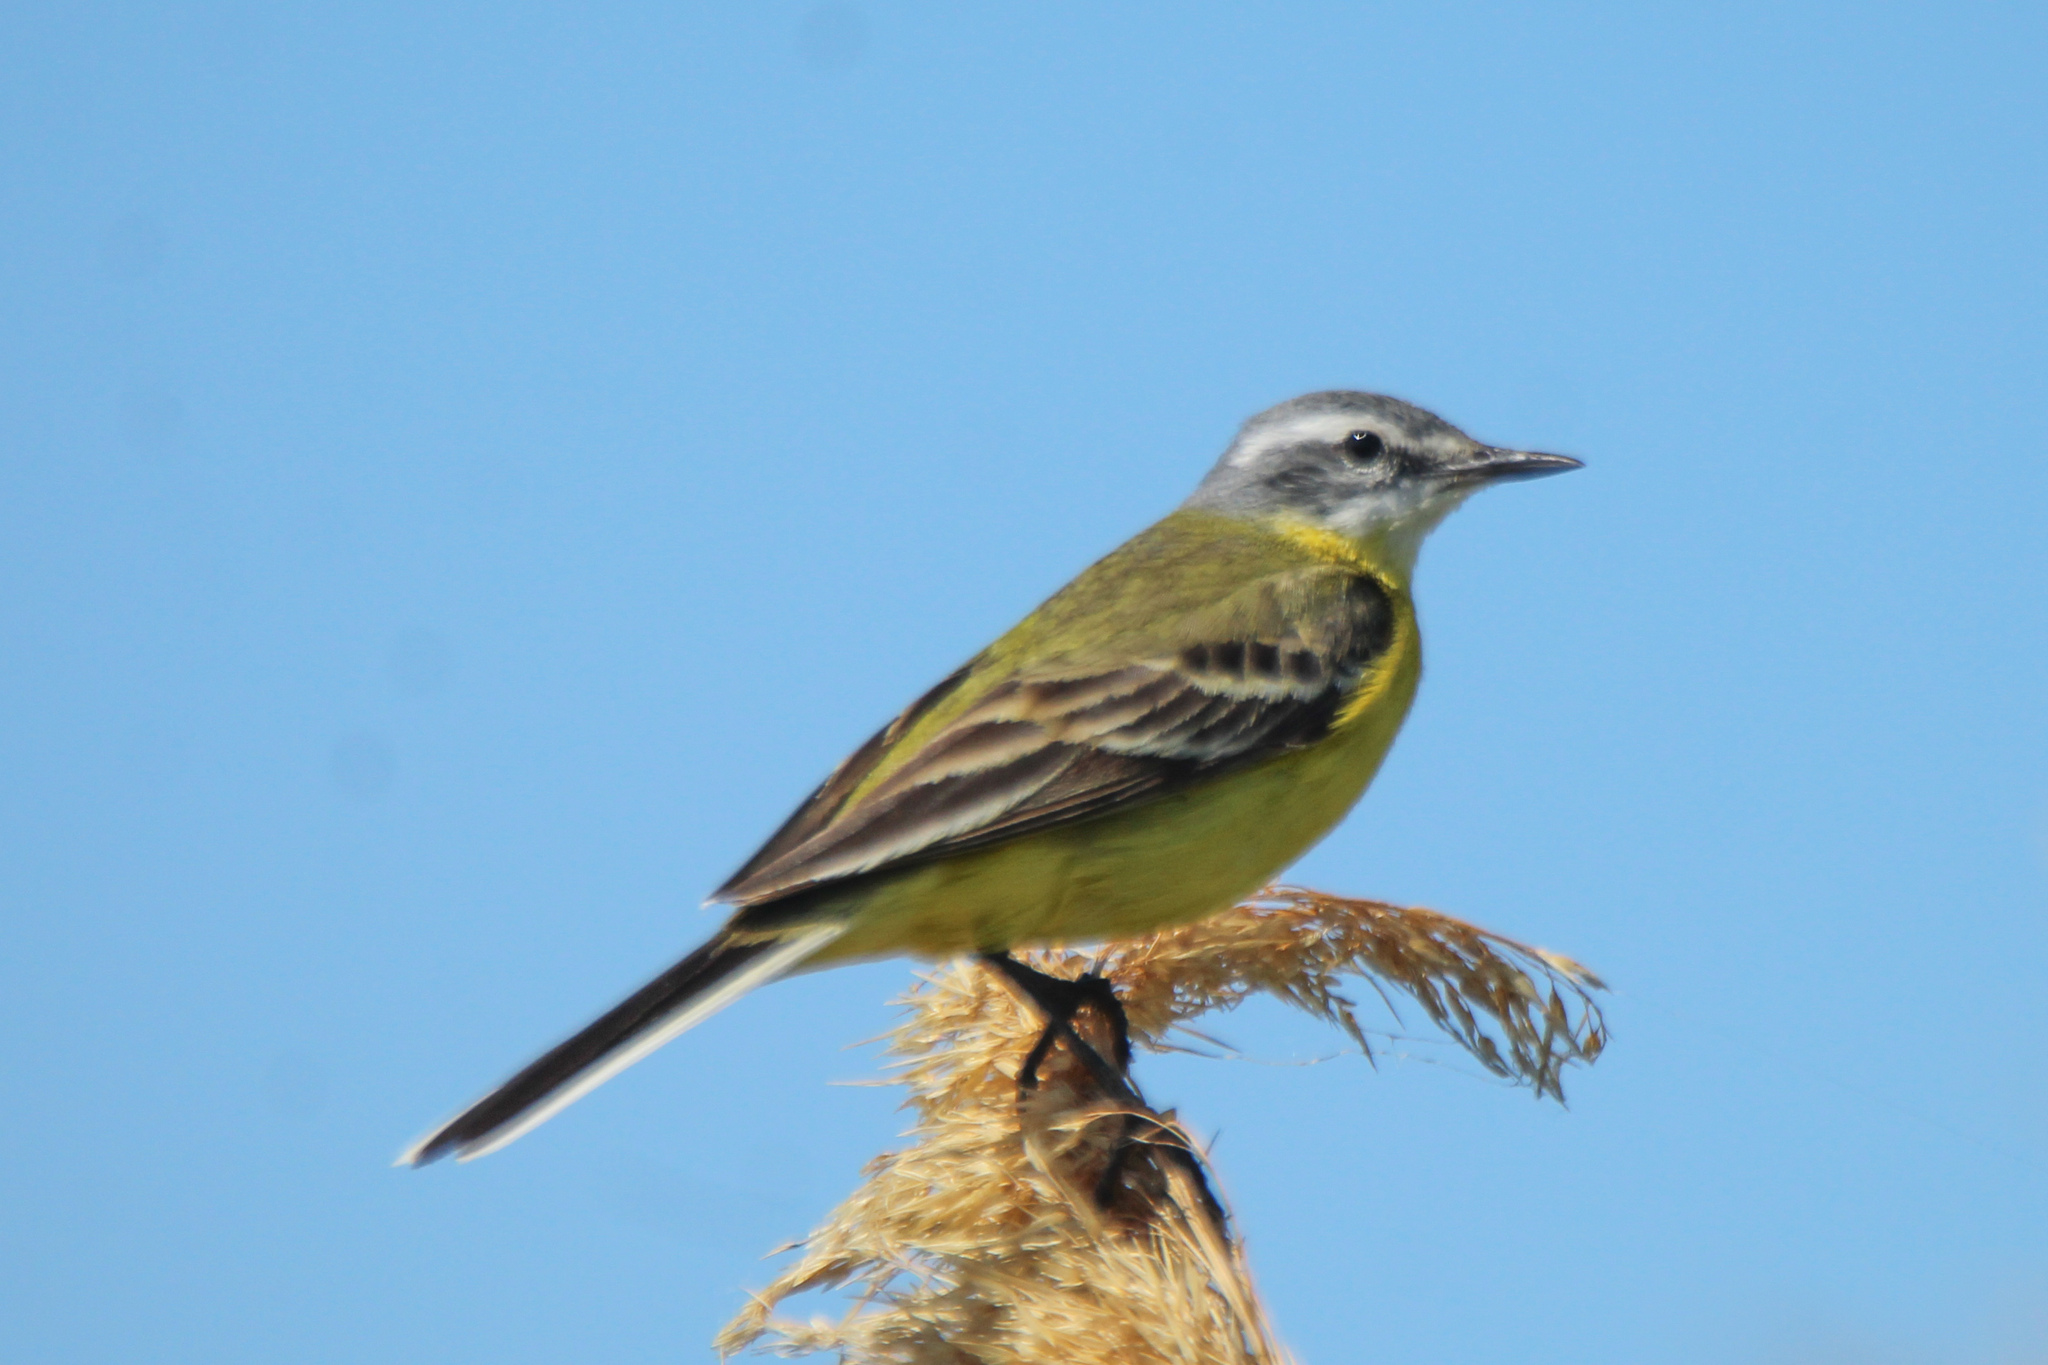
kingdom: Animalia
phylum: Chordata
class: Aves
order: Passeriformes
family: Motacillidae
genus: Motacilla
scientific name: Motacilla flava
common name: Western yellow wagtail
